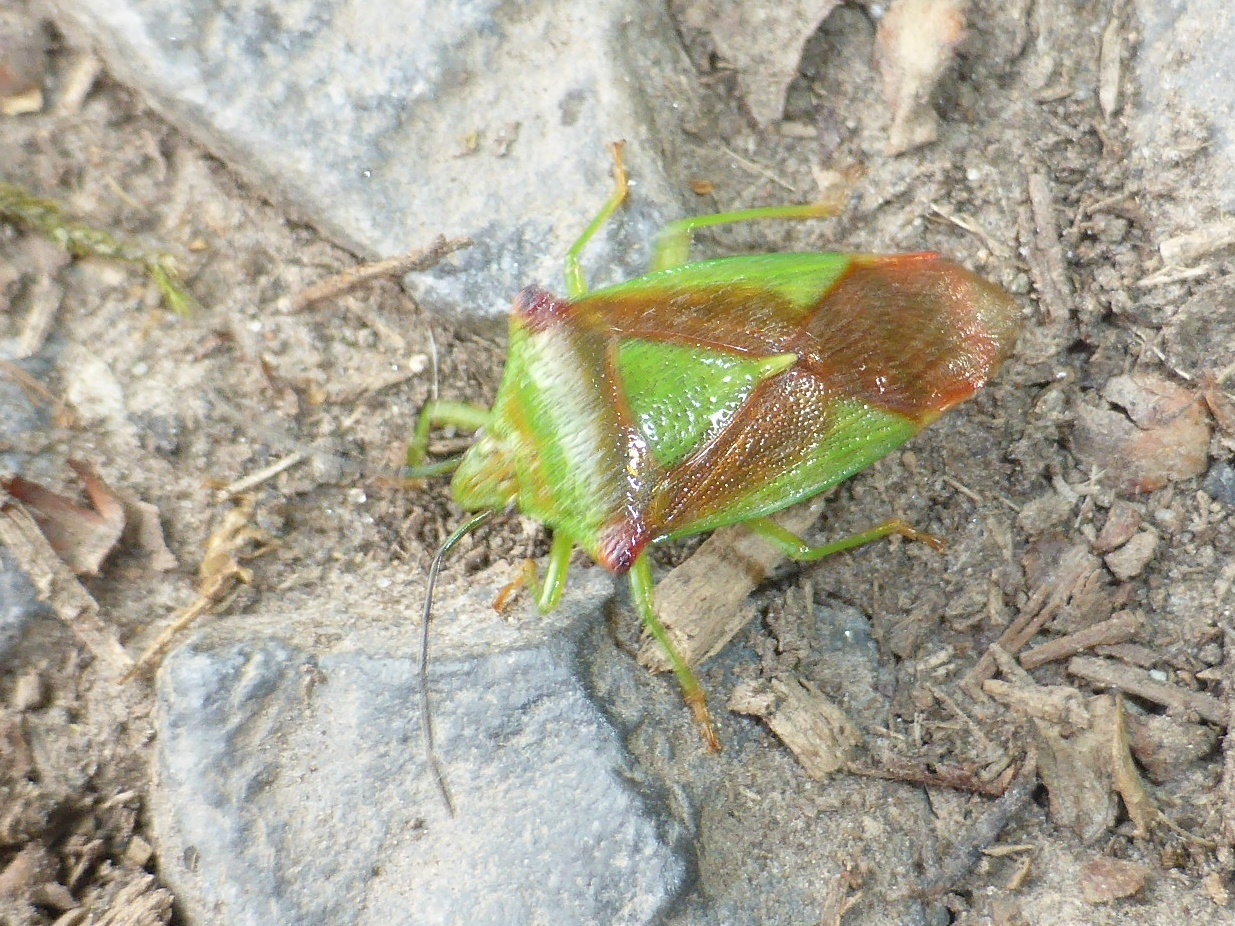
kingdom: Animalia
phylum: Arthropoda
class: Insecta
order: Hemiptera
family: Acanthosomatidae
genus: Acanthosoma
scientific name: Acanthosoma haemorrhoidale
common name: Hawthorn shieldbug
